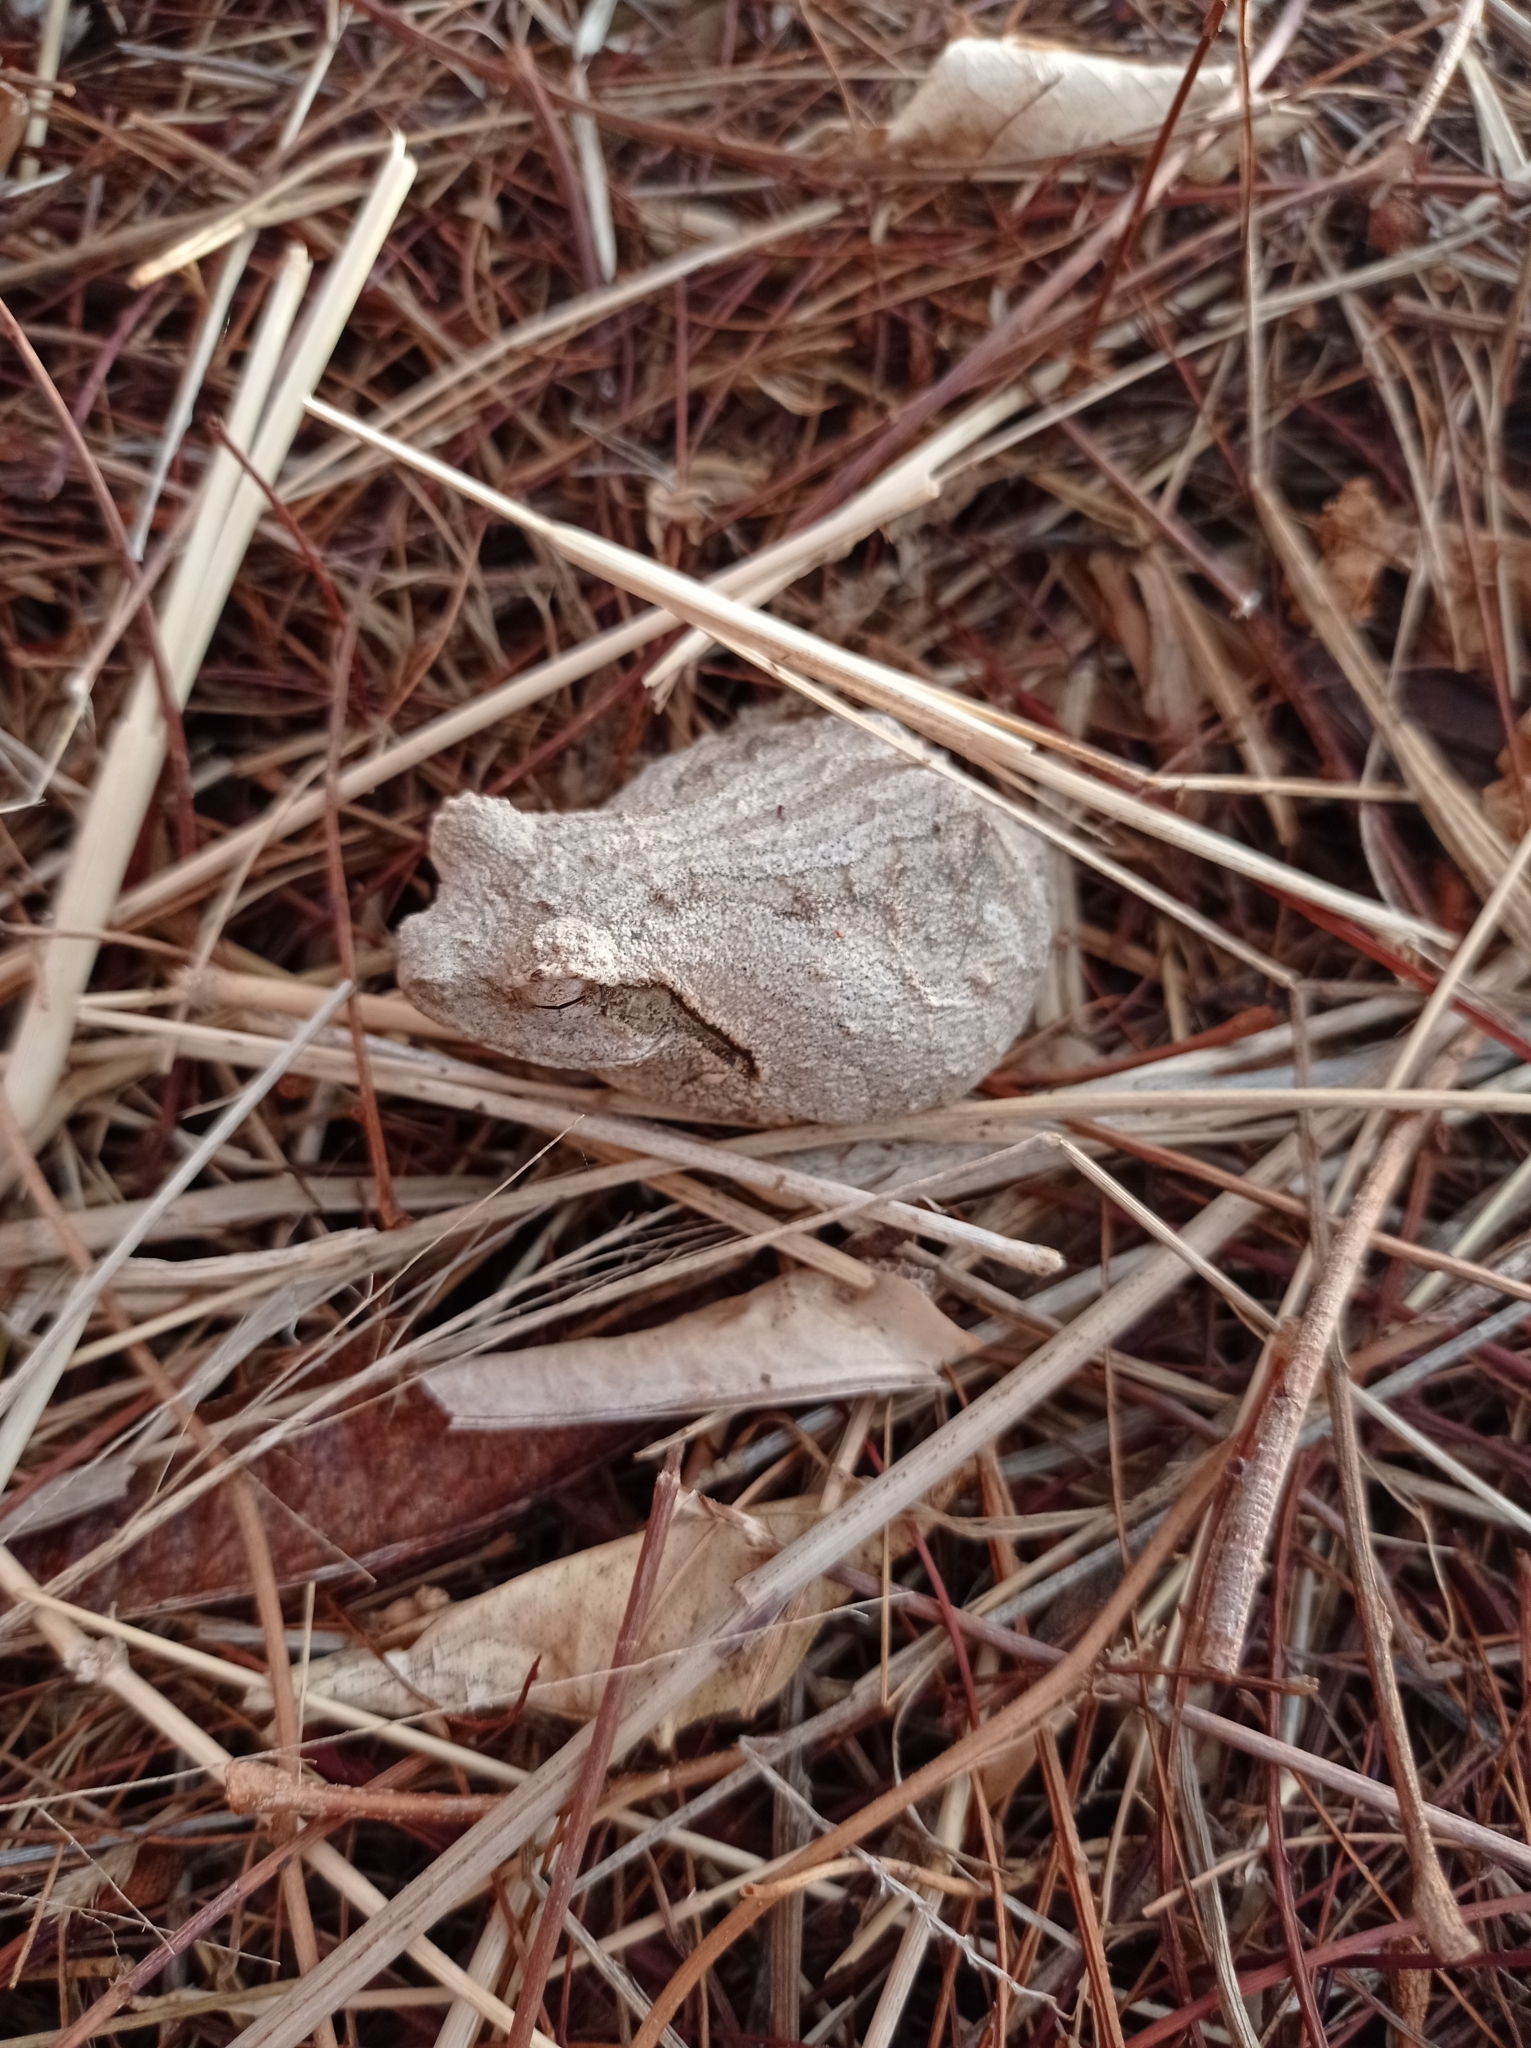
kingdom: Animalia
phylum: Chordata
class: Amphibia
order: Anura
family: Rhacophoridae
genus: Chiromantis
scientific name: Chiromantis xerampelina
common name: African gray treefrog
